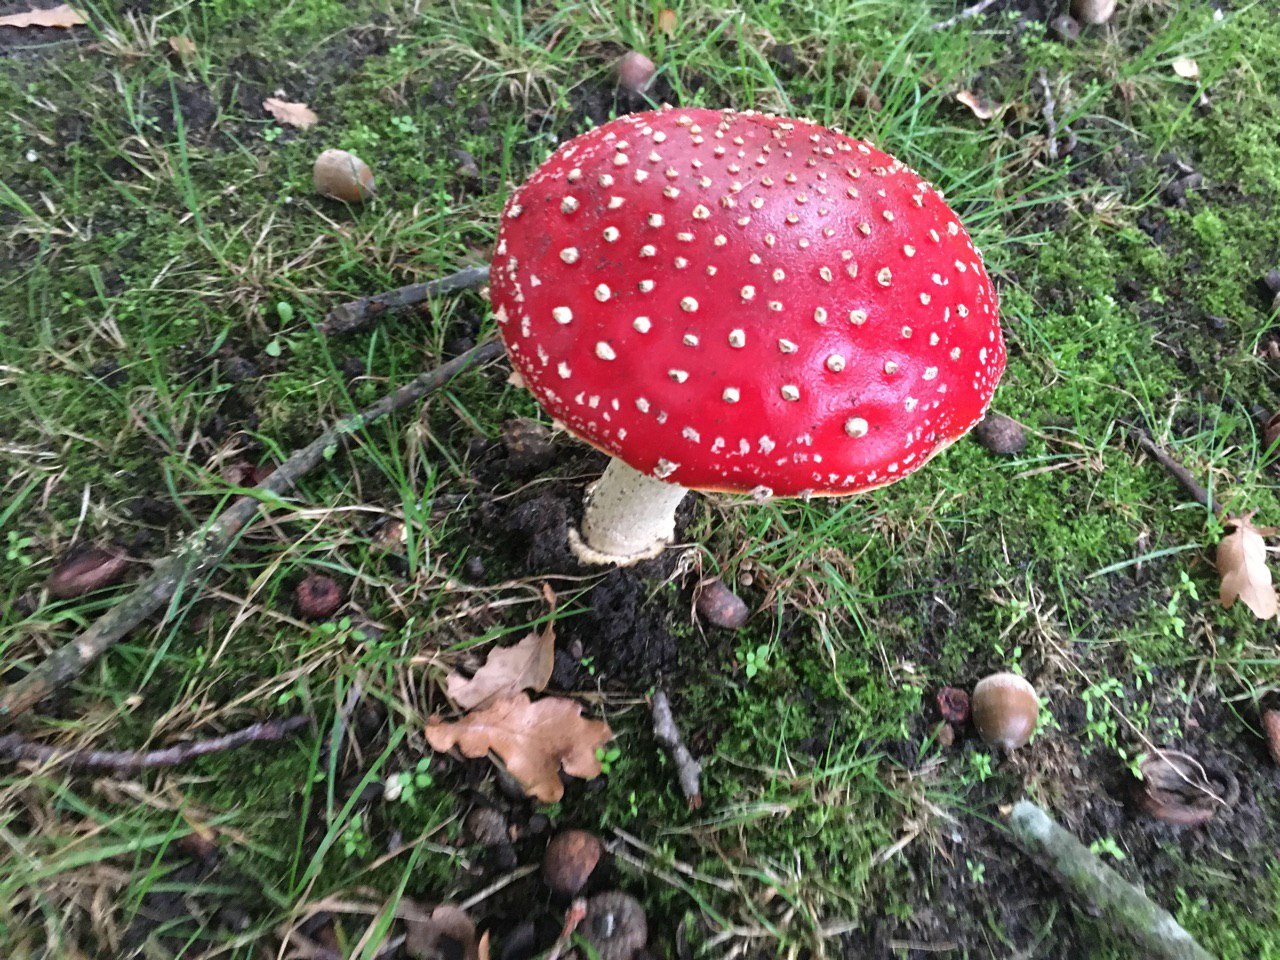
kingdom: Fungi
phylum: Basidiomycota
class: Agaricomycetes
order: Agaricales
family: Amanitaceae
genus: Amanita
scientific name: Amanita muscaria
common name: Fly agaric
